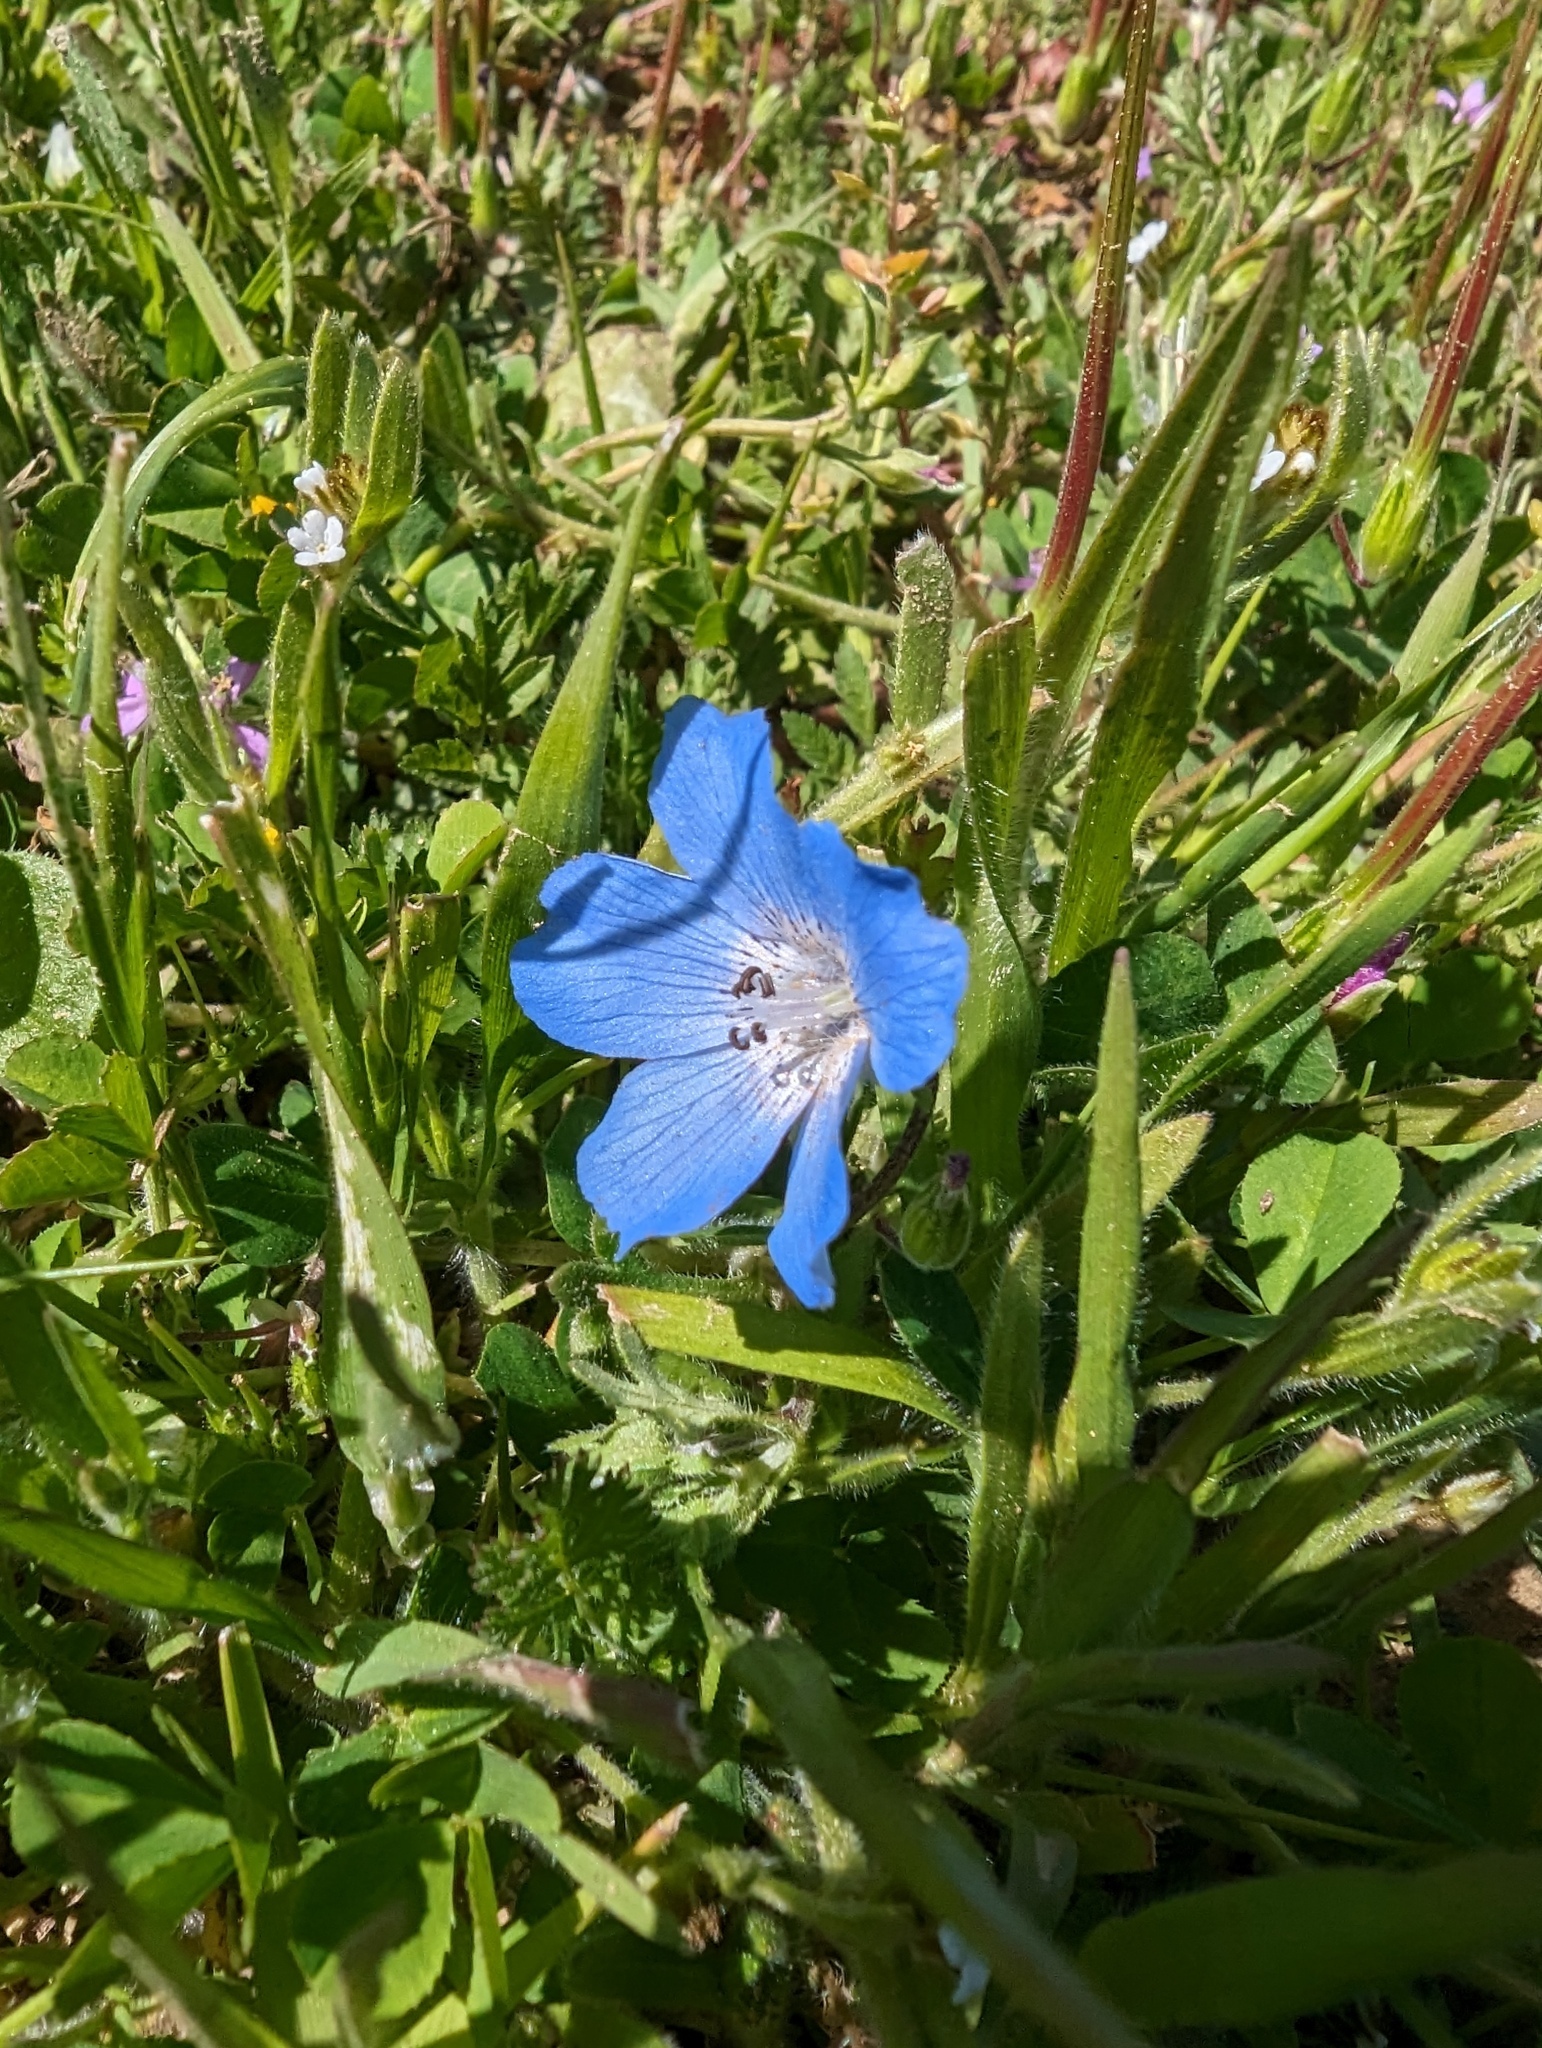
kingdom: Plantae
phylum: Tracheophyta
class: Magnoliopsida
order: Boraginales
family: Hydrophyllaceae
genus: Nemophila
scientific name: Nemophila menziesii
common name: Baby's-blue-eyes
